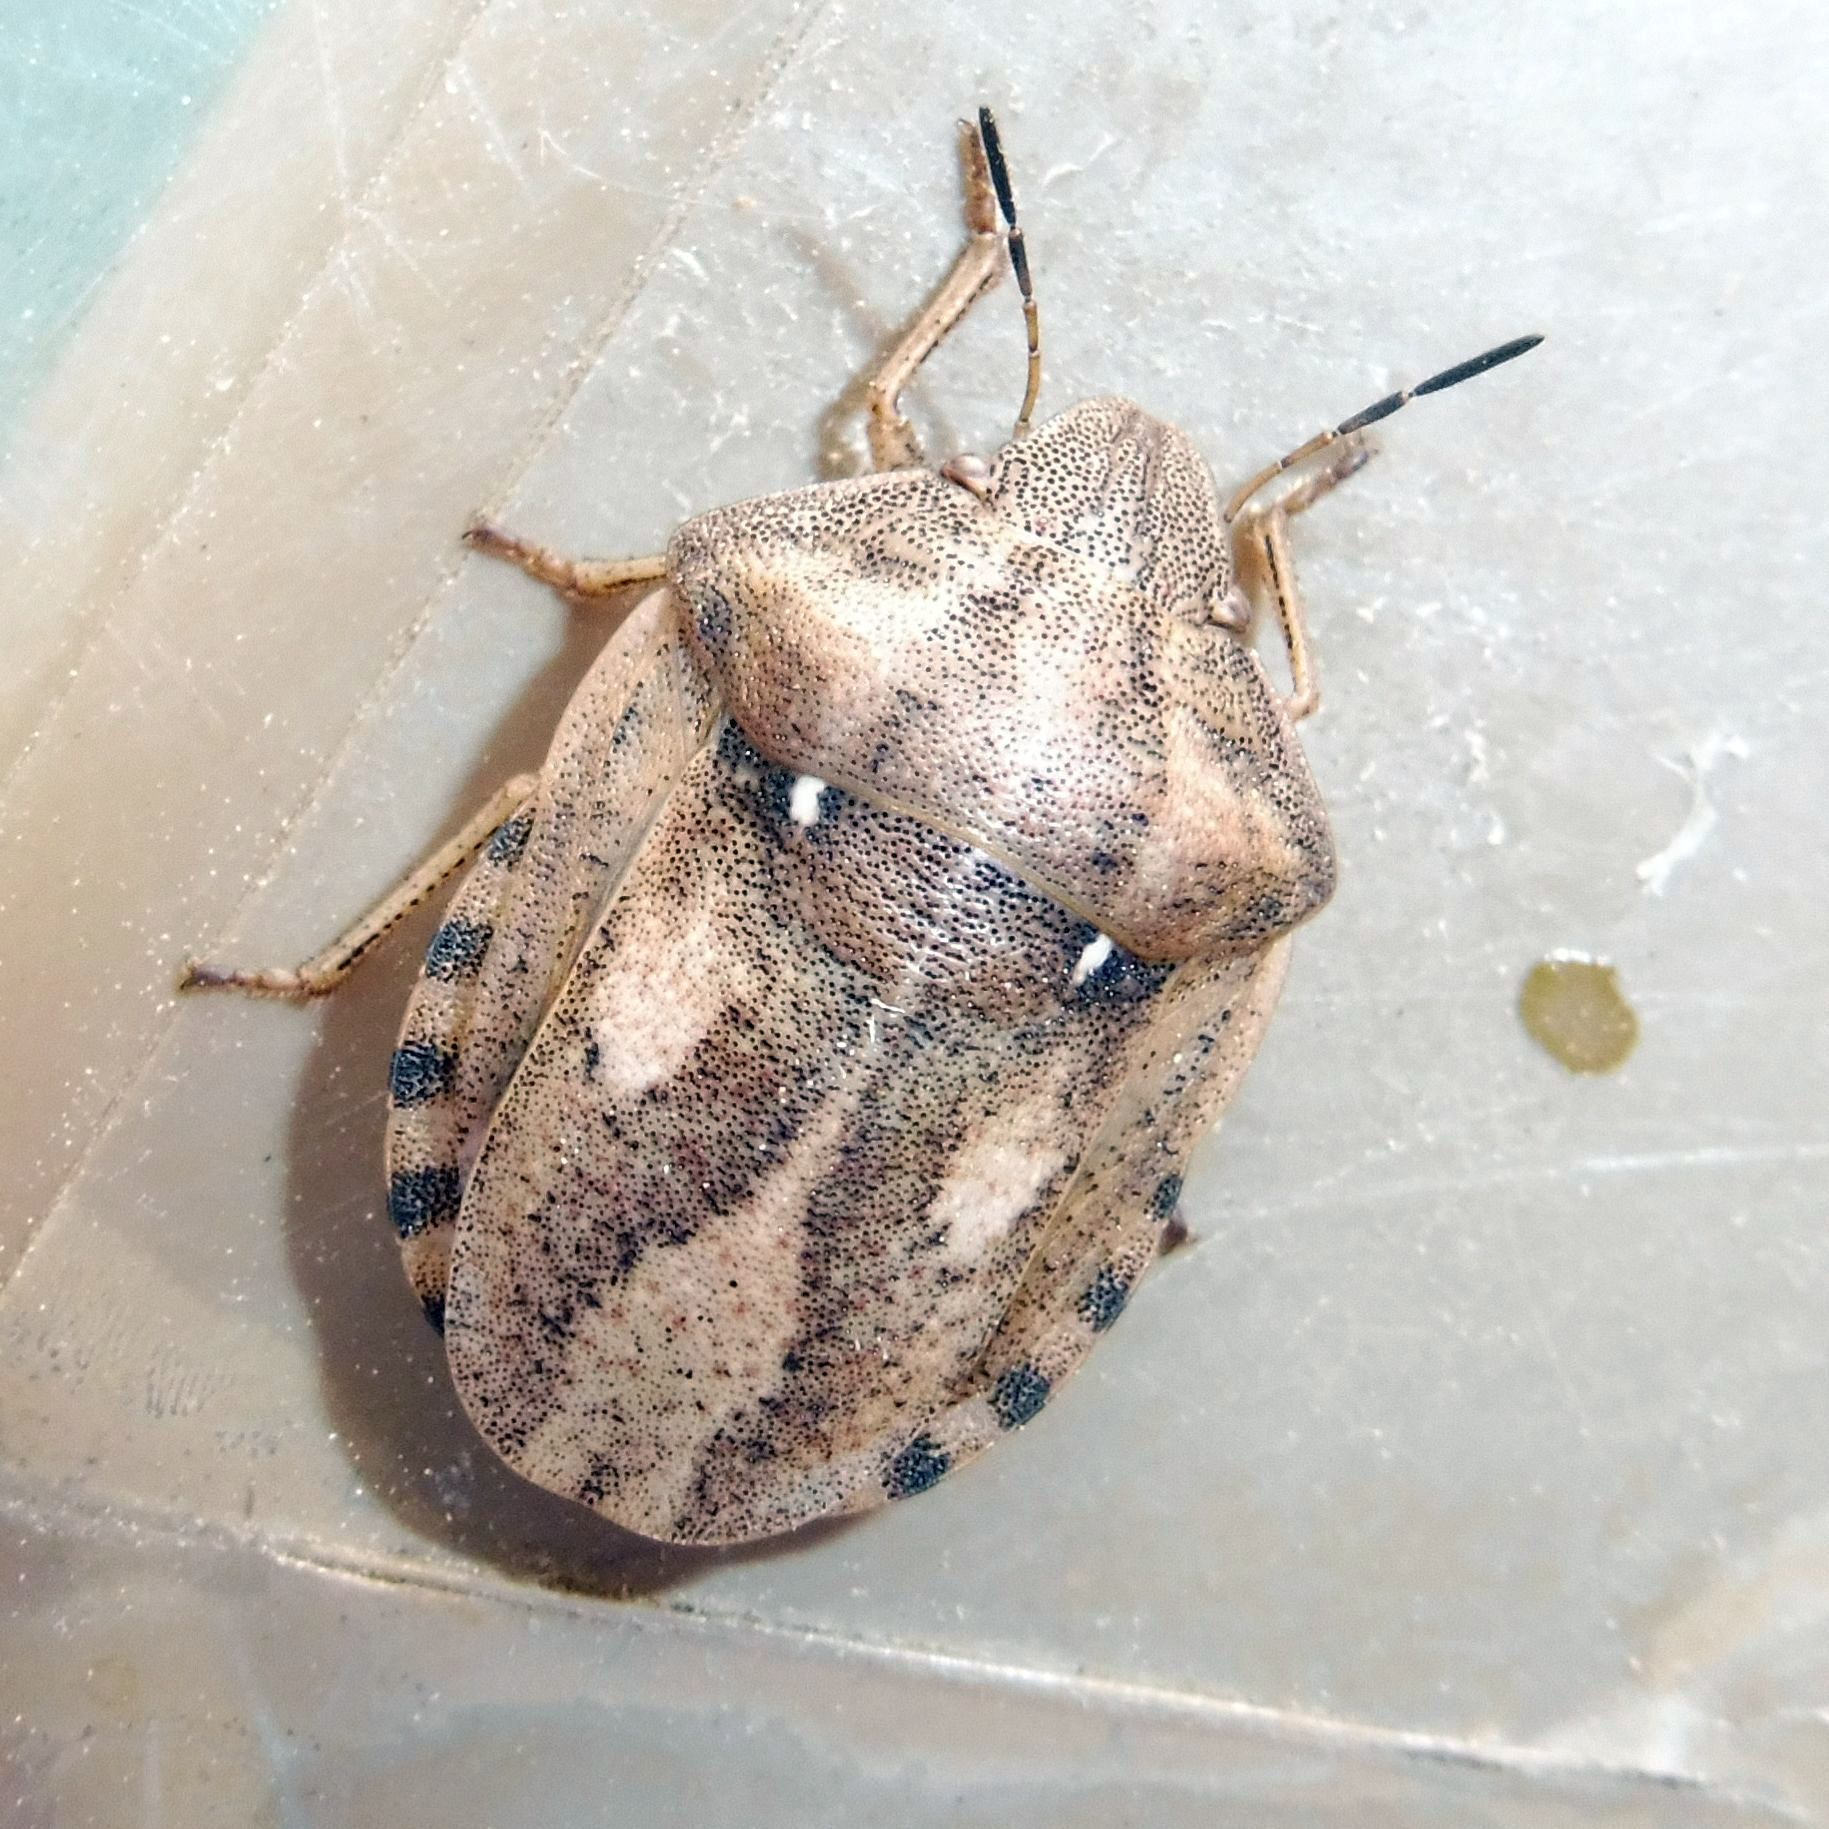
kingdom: Animalia
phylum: Arthropoda
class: Insecta
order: Hemiptera
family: Scutelleridae
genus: Eurygaster
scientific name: Eurygaster testudinaria
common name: Tortoise bug
